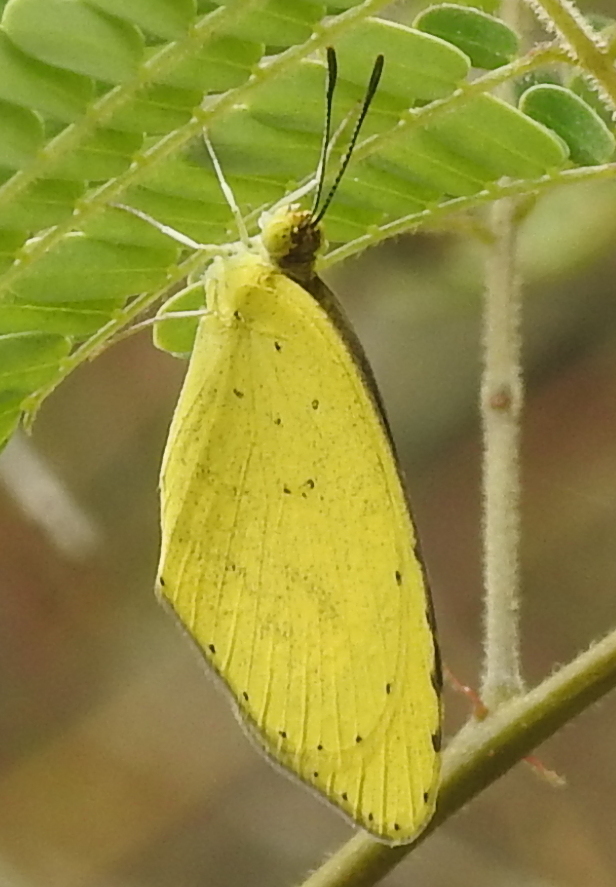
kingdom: Animalia
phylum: Arthropoda
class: Insecta
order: Lepidoptera
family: Pieridae
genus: Eurema
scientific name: Eurema brigitta
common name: Small grass yellow
